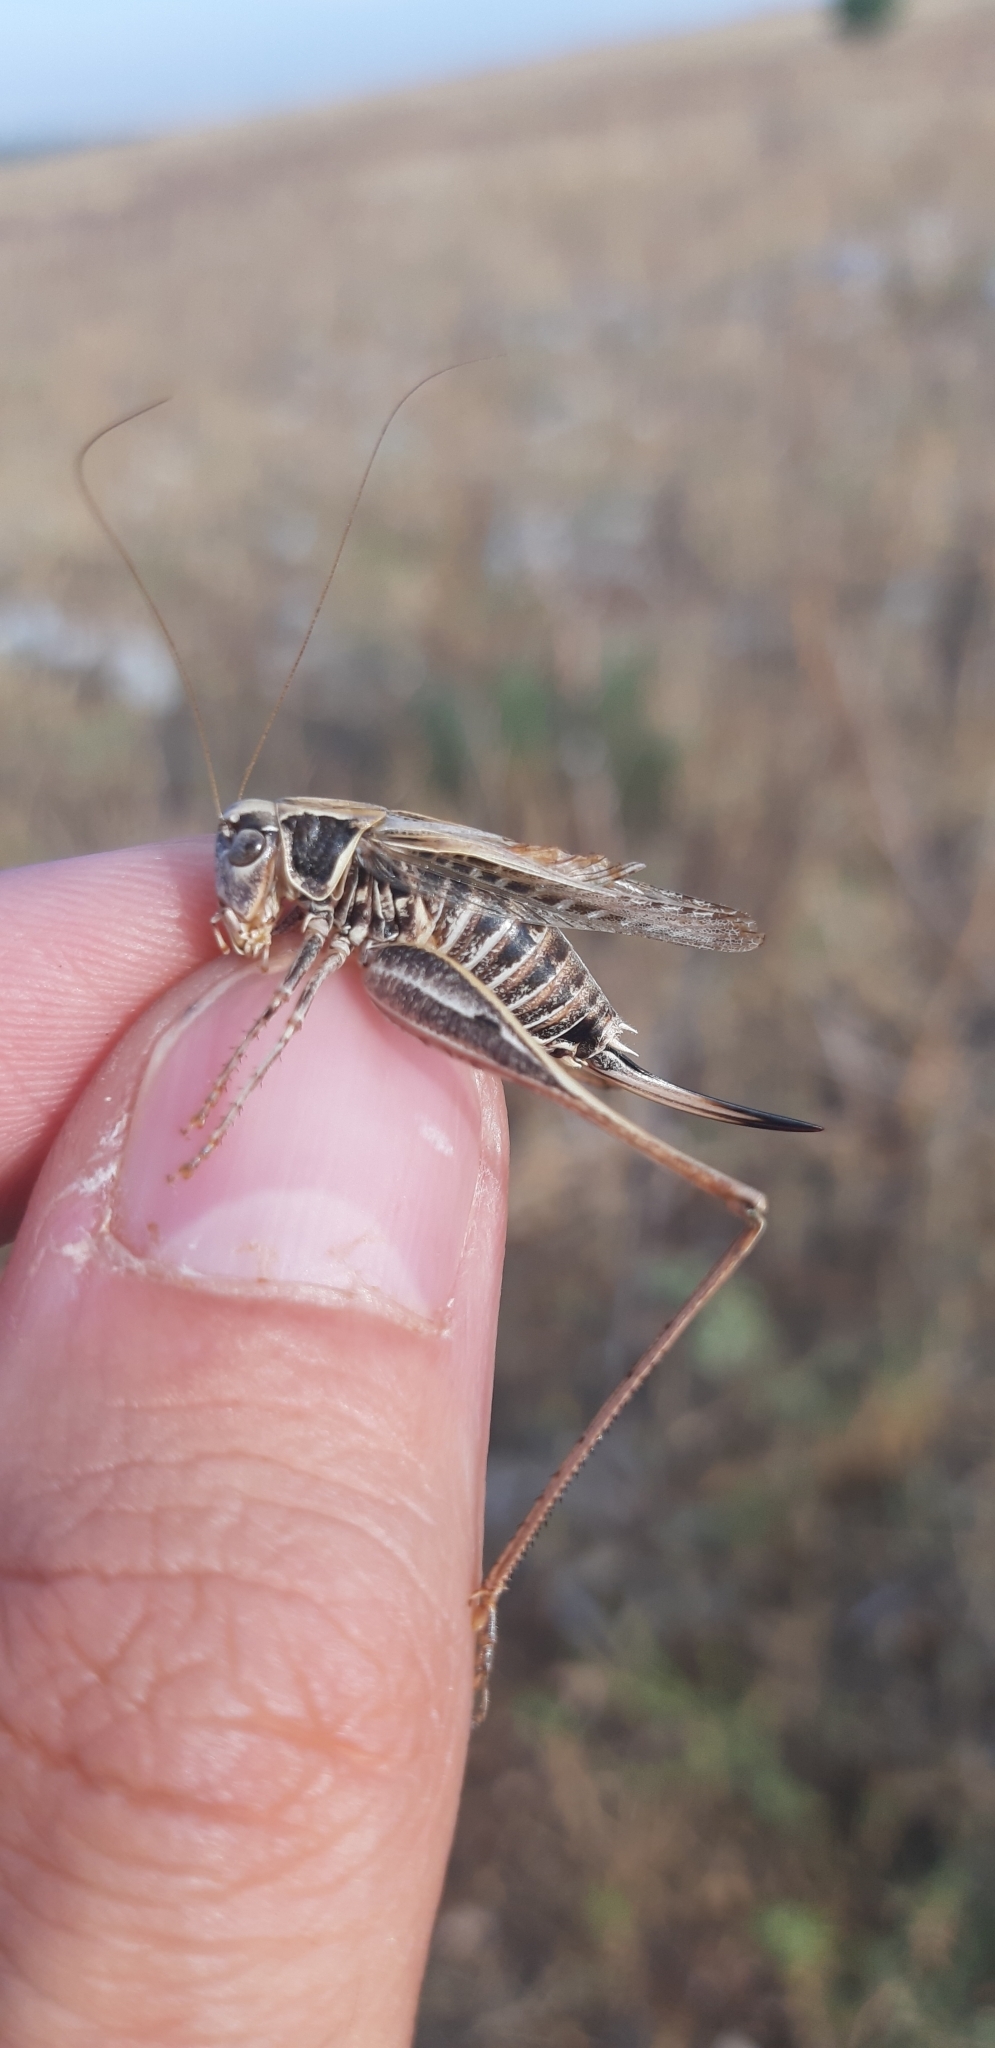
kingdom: Animalia
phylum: Arthropoda
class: Insecta
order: Orthoptera
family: Tettigoniidae
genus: Montana
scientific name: Montana stricta
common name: Italian bush-cricket
